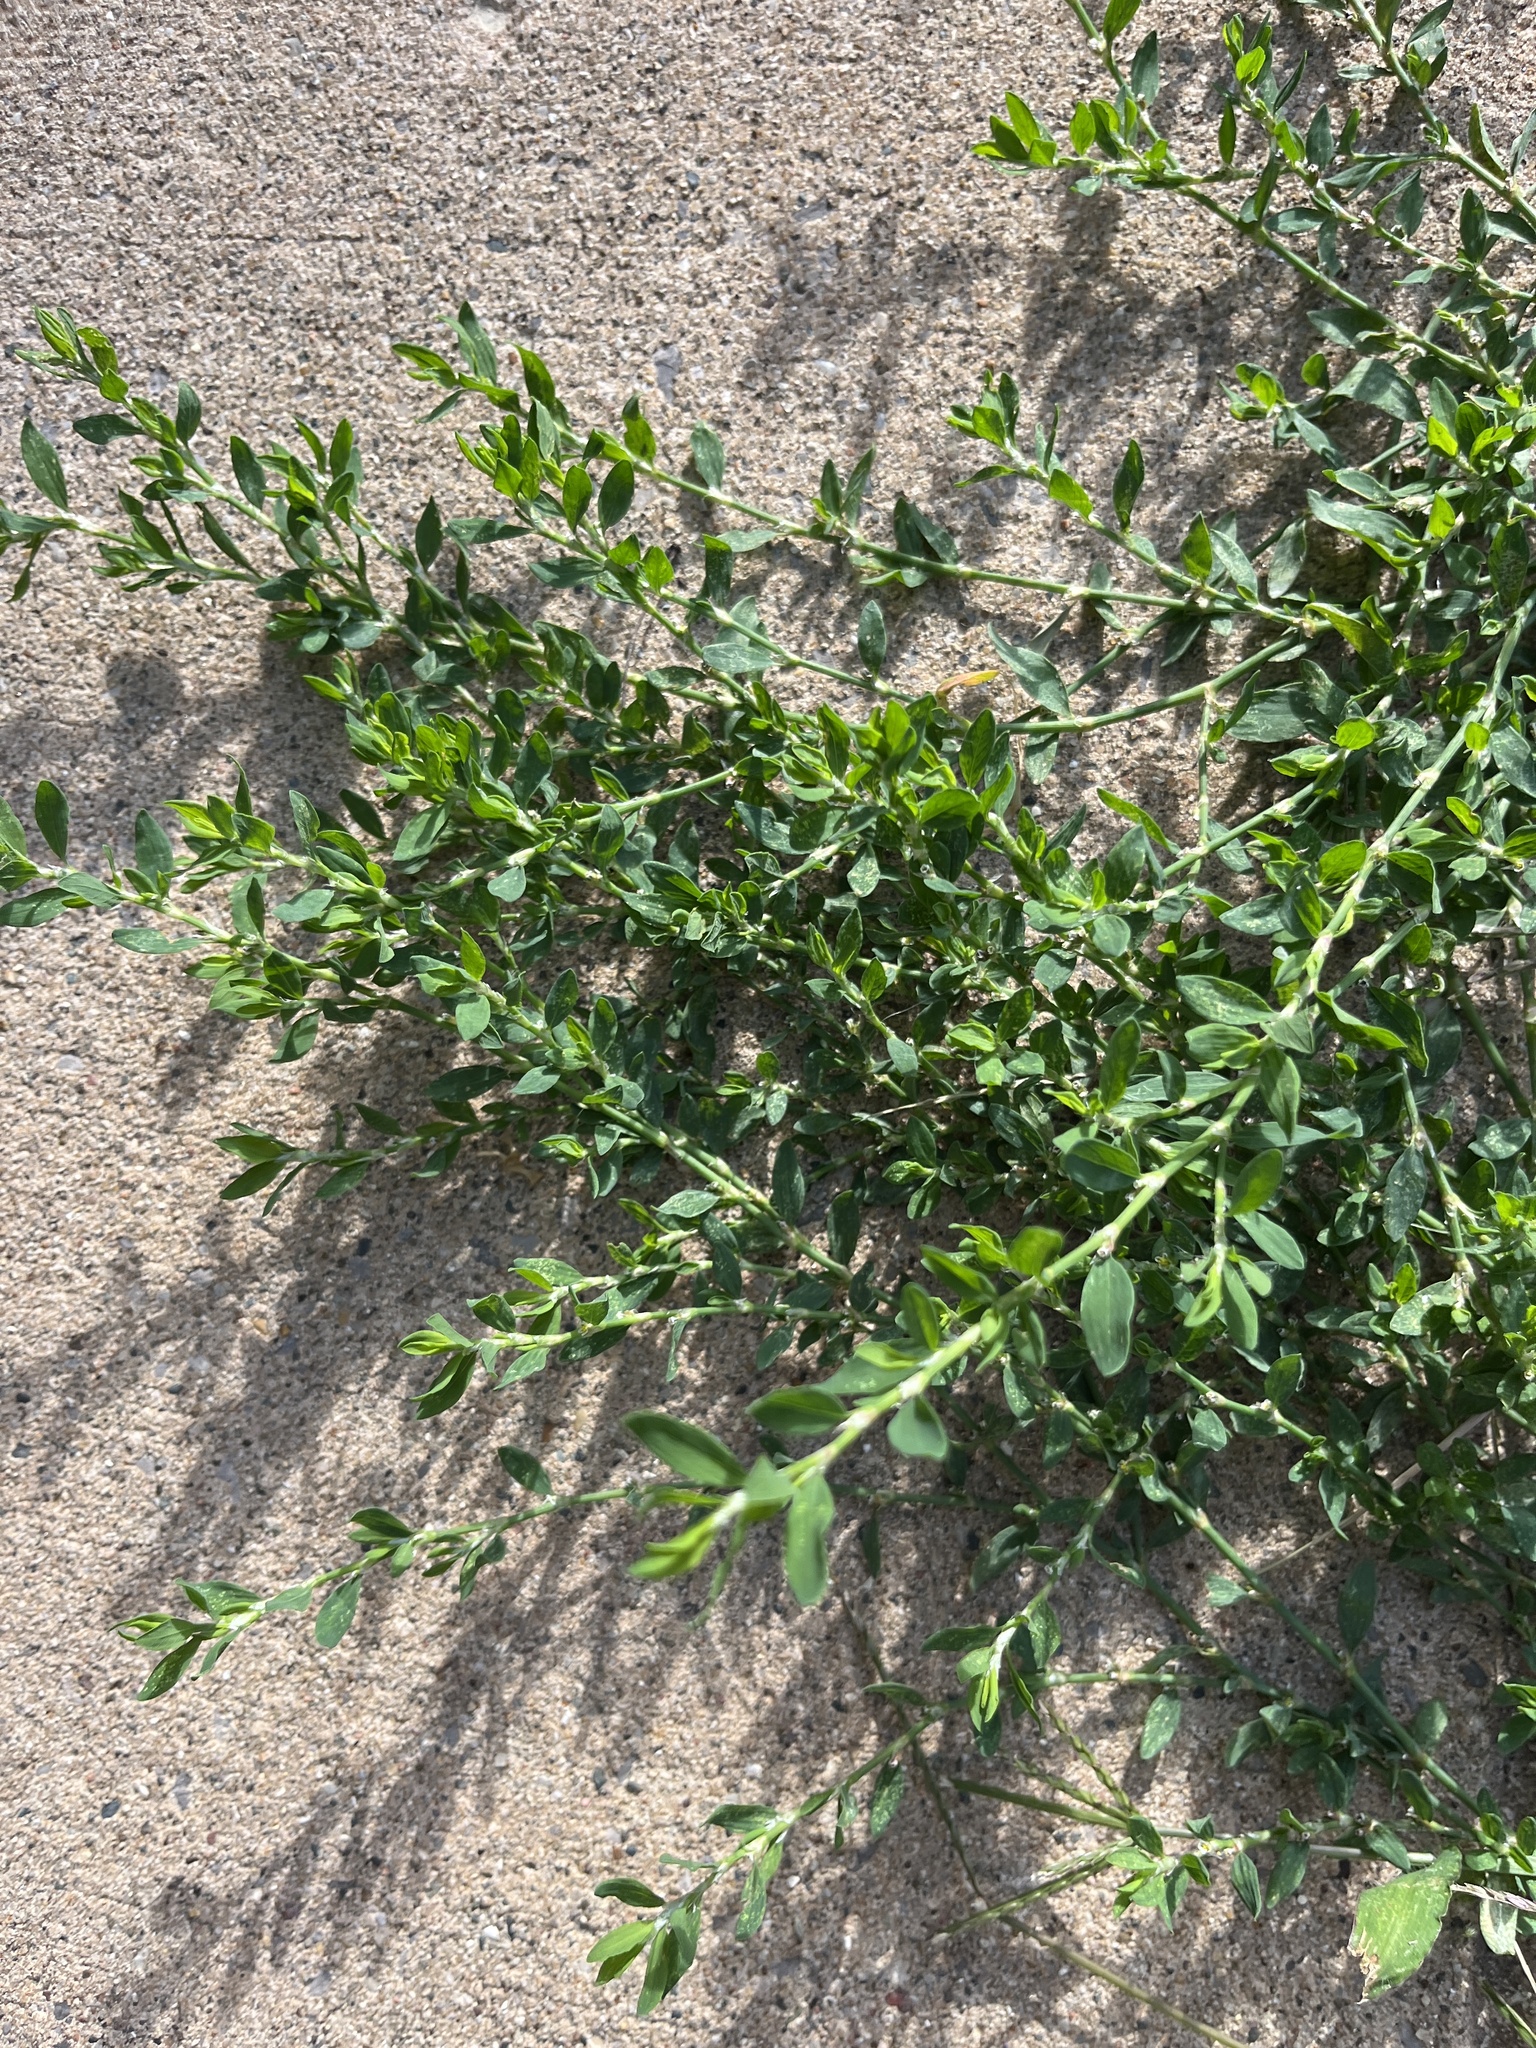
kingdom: Plantae
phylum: Tracheophyta
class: Magnoliopsida
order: Caryophyllales
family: Polygonaceae
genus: Polygonum
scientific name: Polygonum aviculare
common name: Prostrate knotweed
